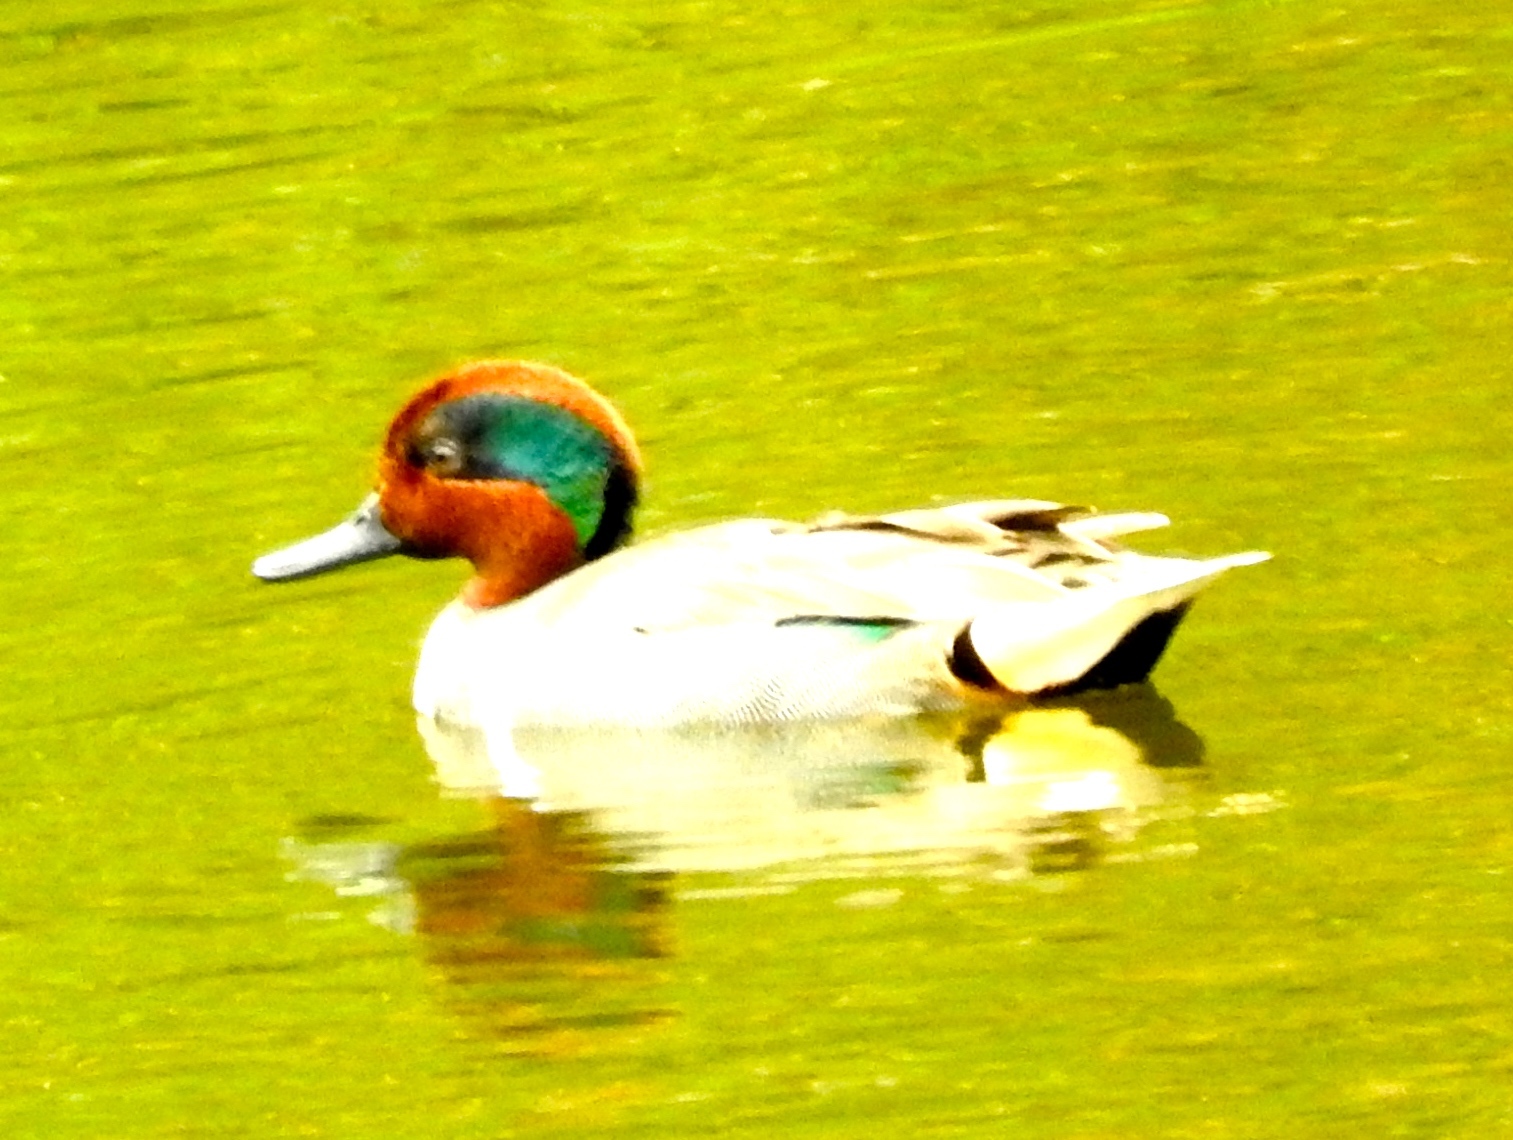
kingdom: Animalia
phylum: Chordata
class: Aves
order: Anseriformes
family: Anatidae
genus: Anas
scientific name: Anas carolinensis
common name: Green-winged teal
